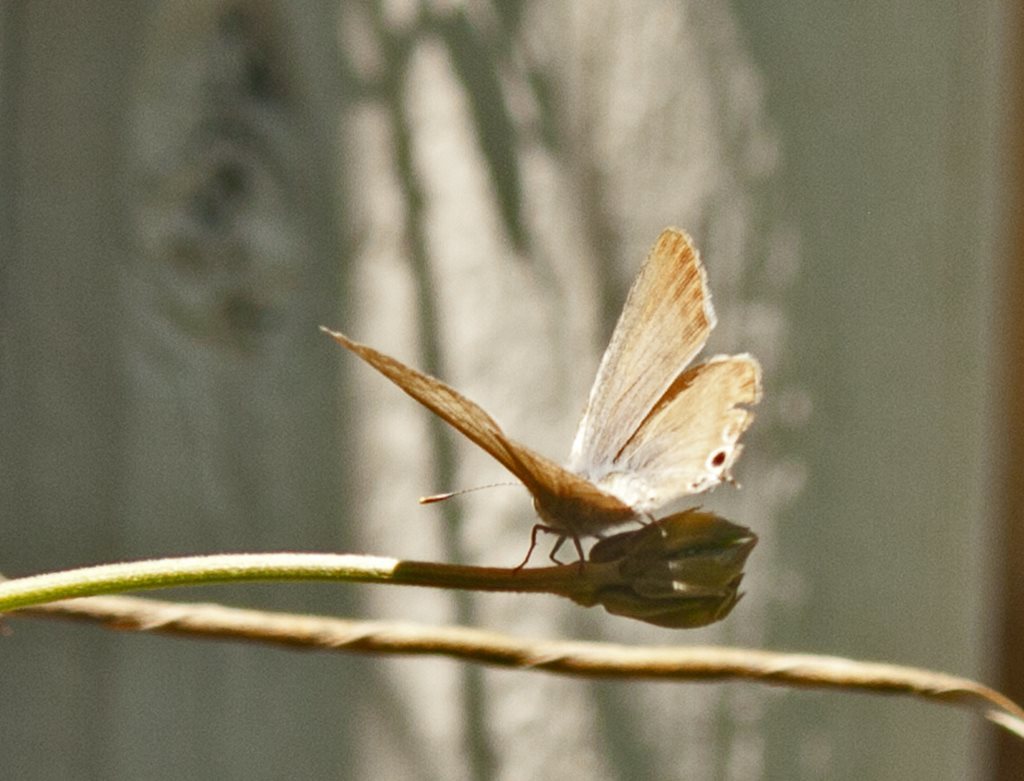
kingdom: Animalia
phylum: Arthropoda
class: Insecta
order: Lepidoptera
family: Lycaenidae
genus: Lampides
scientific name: Lampides boeticus
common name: Long-tailed blue
